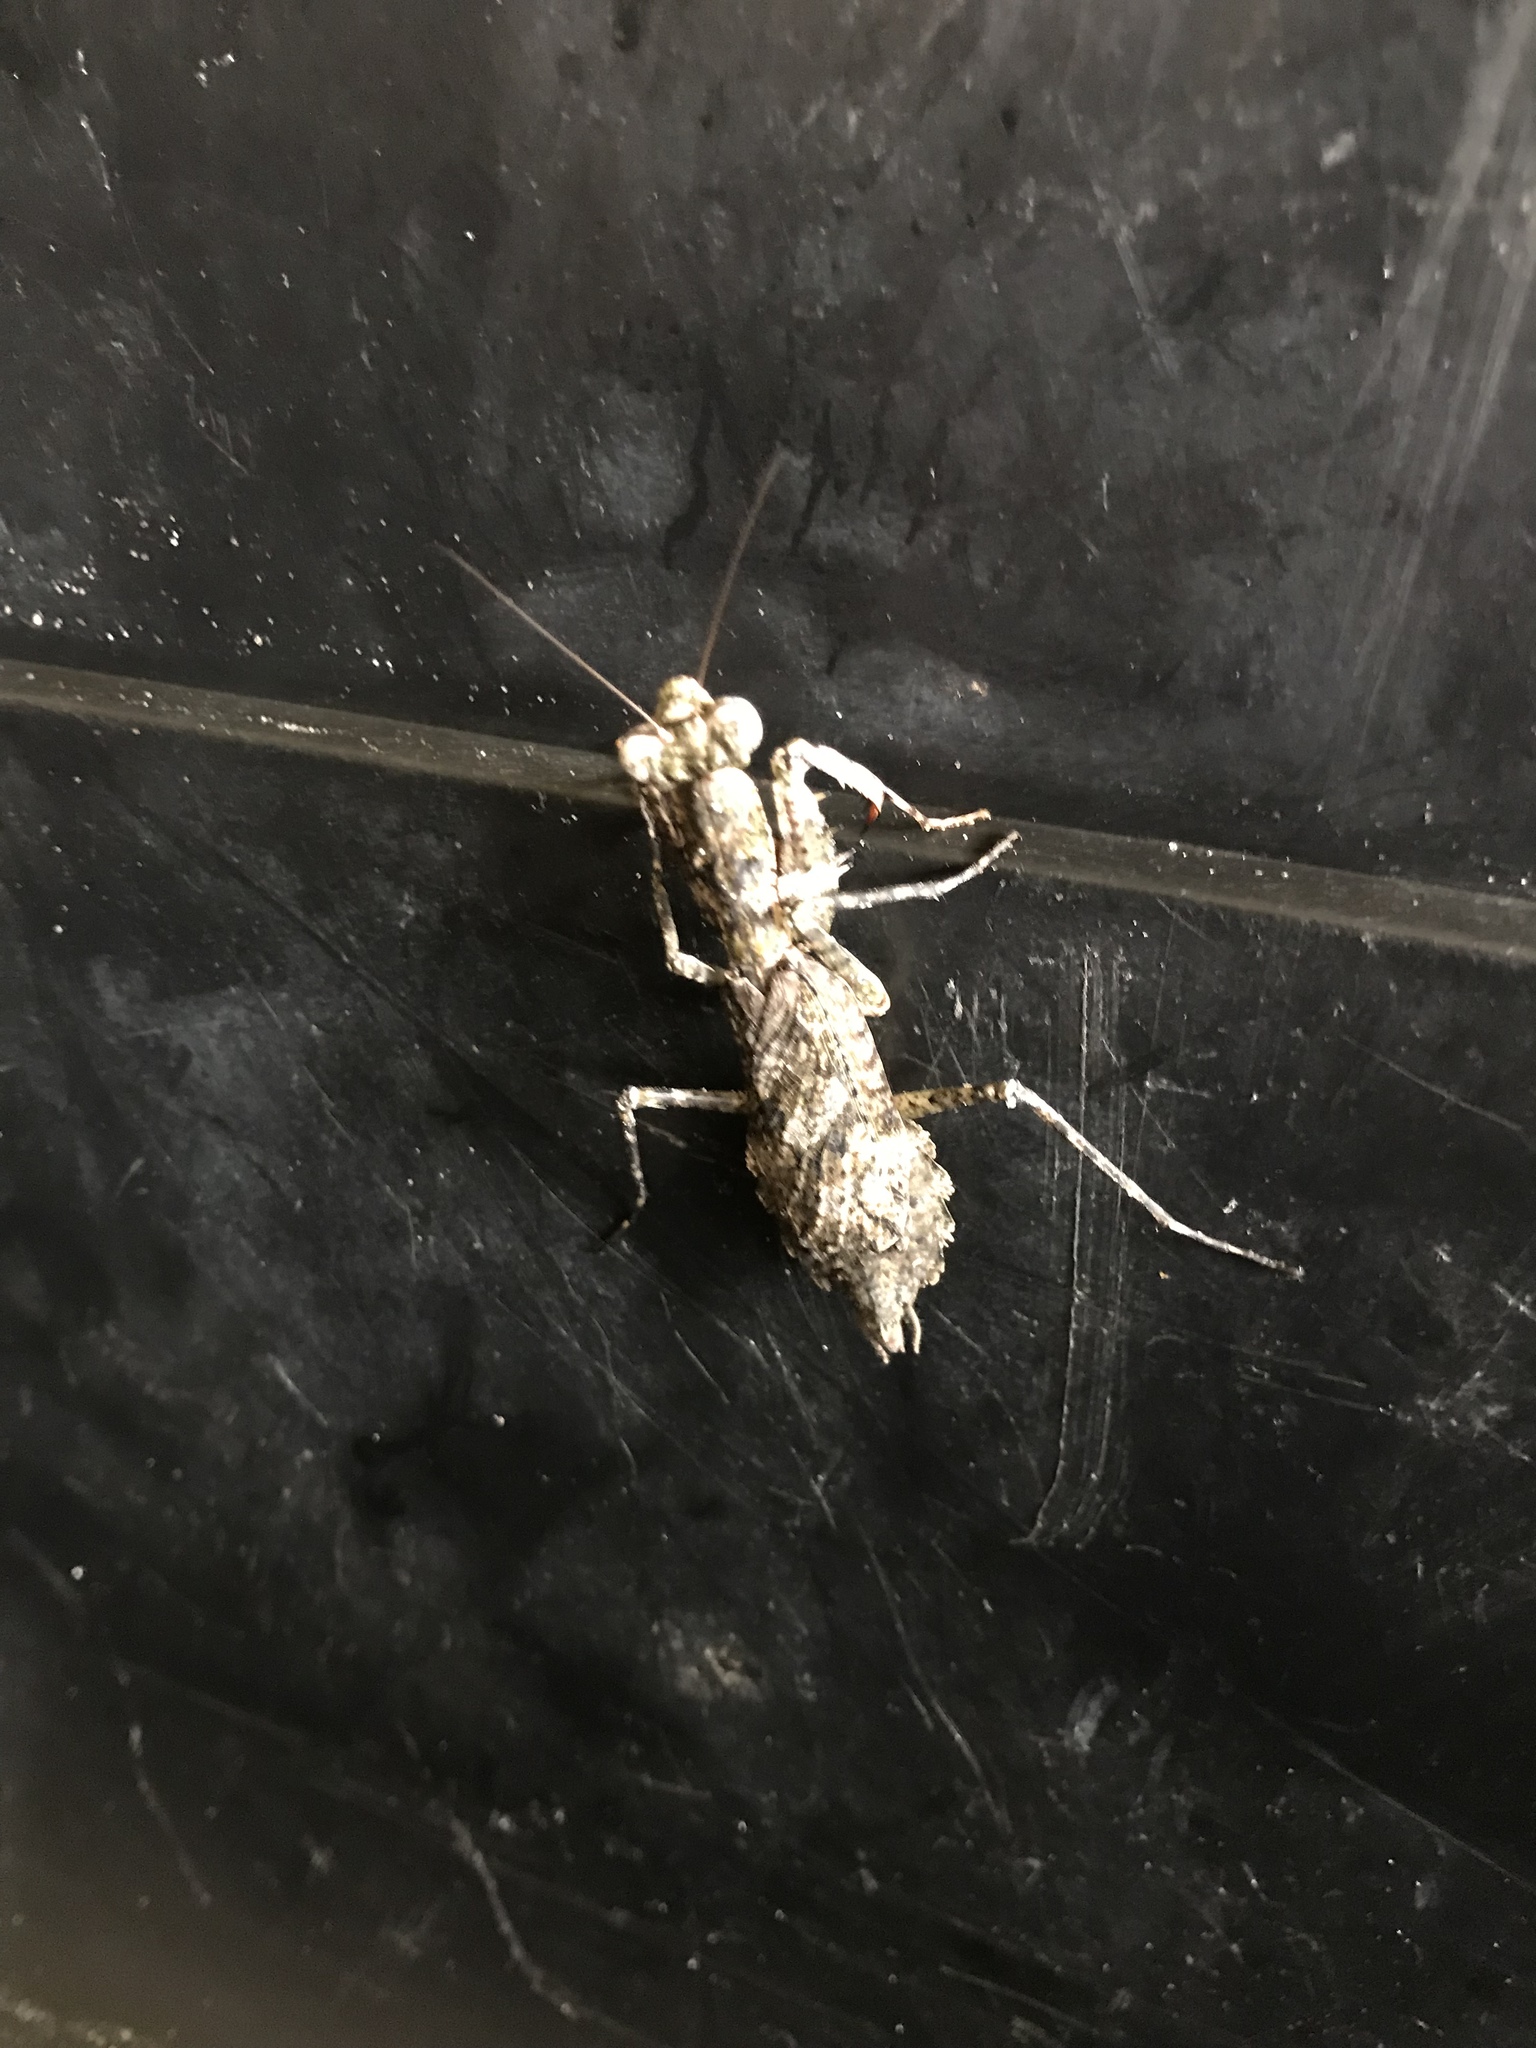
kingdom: Animalia
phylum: Arthropoda
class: Insecta
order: Mantodea
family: Epaphroditidae
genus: Gonatista
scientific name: Gonatista grisea
